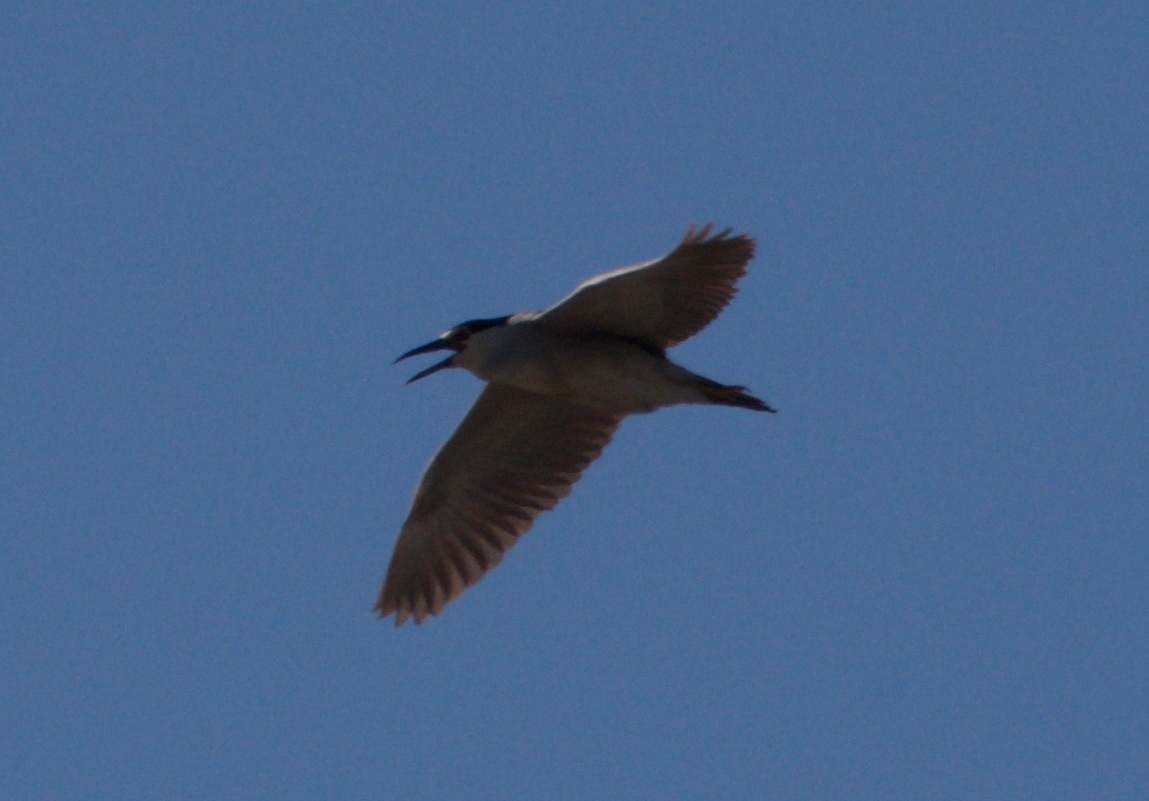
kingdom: Animalia
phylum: Chordata
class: Aves
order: Pelecaniformes
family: Ardeidae
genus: Nycticorax
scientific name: Nycticorax nycticorax
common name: Black-crowned night heron
